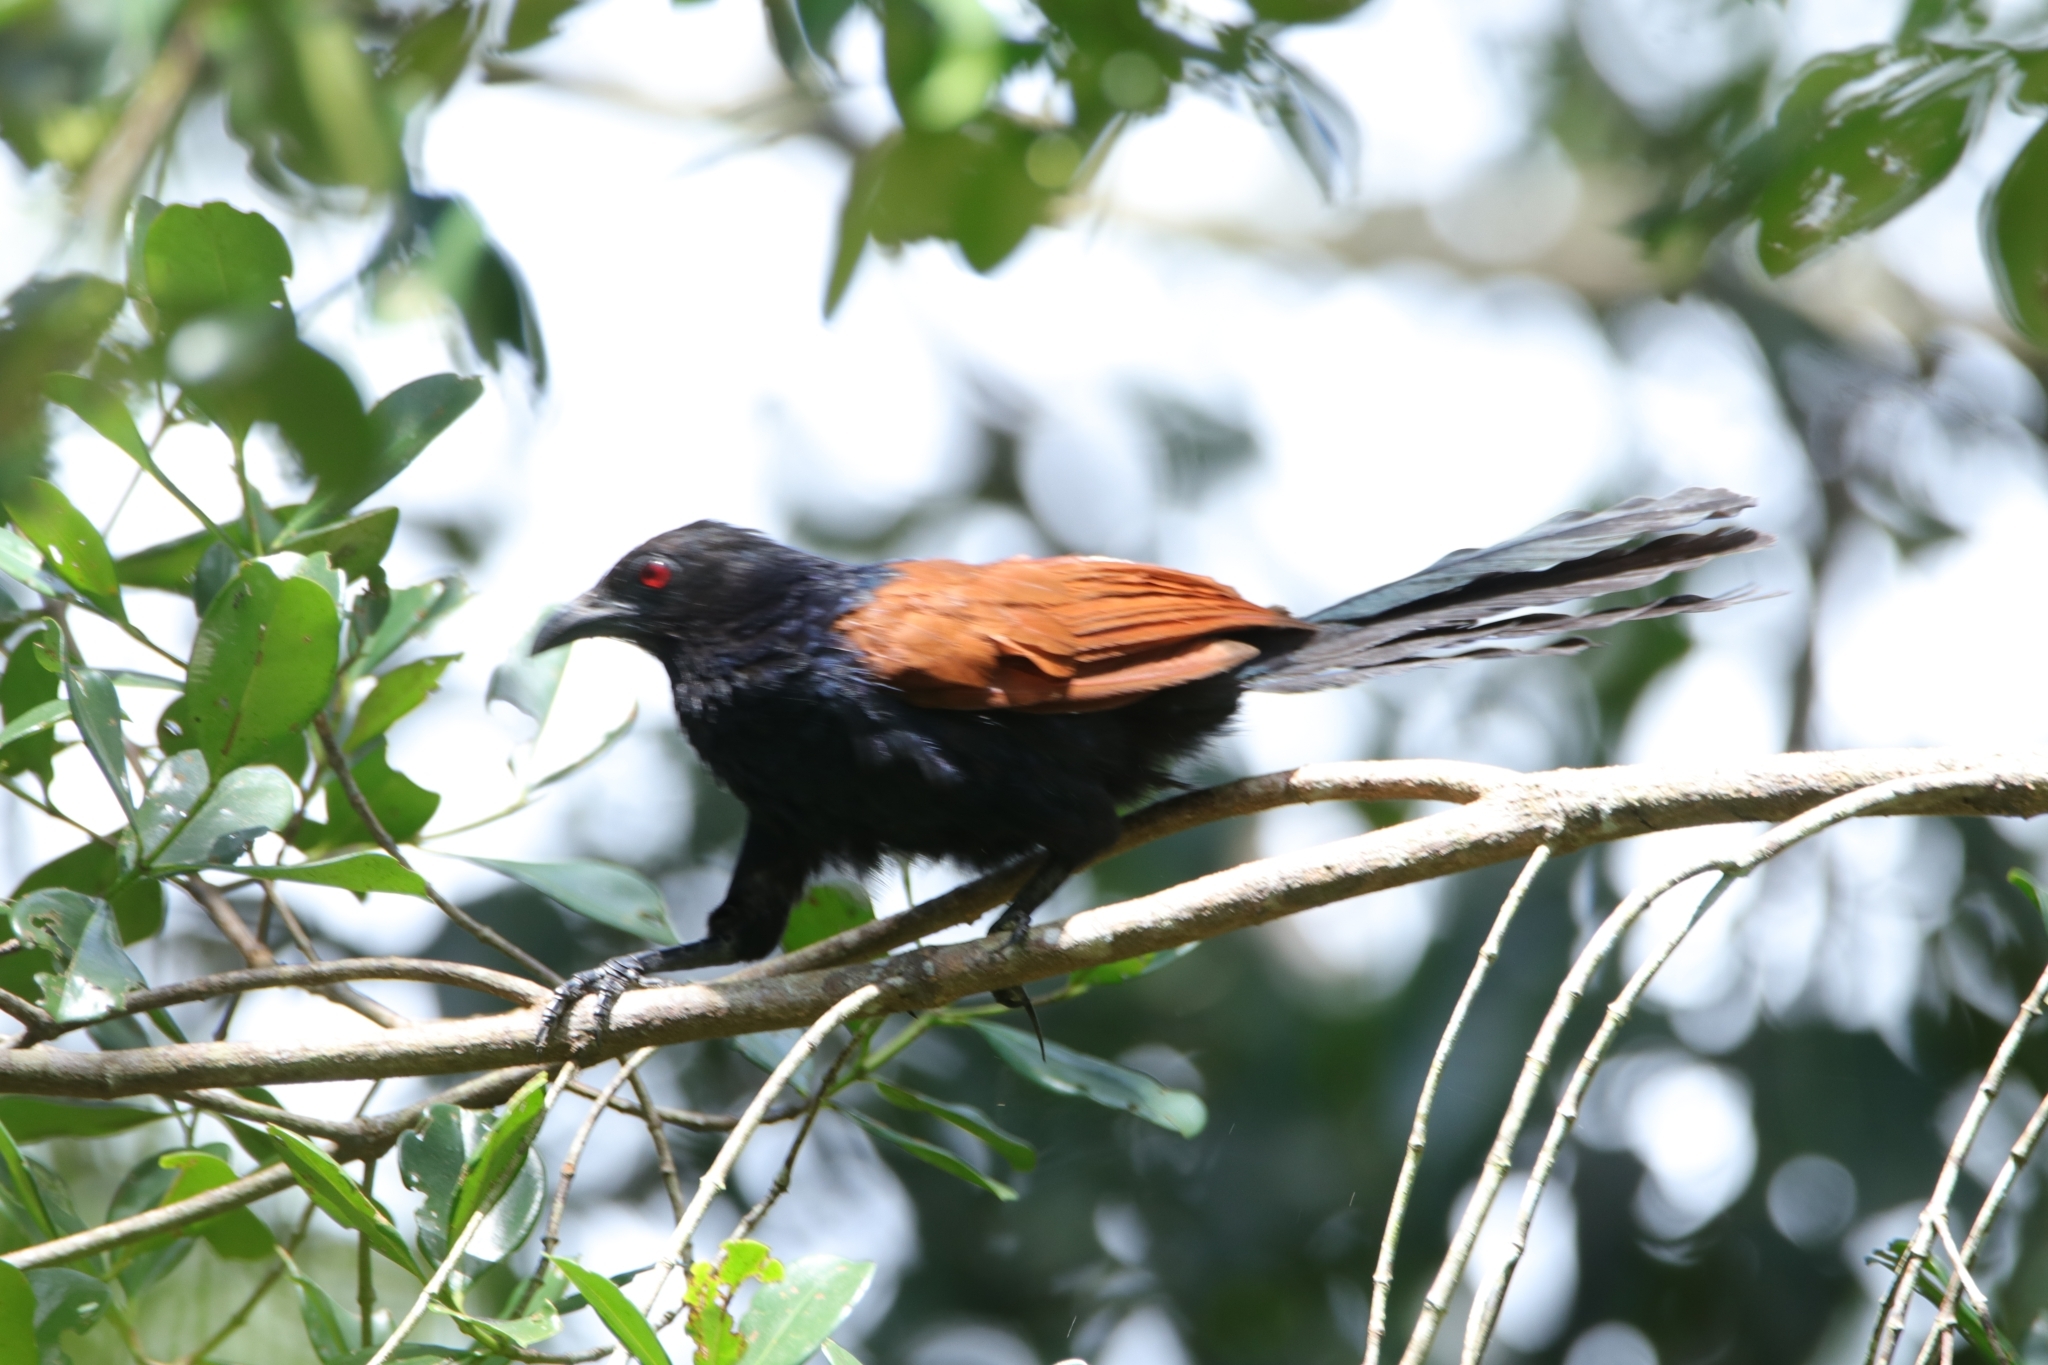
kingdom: Animalia
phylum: Chordata
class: Aves
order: Cuculiformes
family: Cuculidae
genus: Centropus
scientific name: Centropus sinensis
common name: Greater coucal
